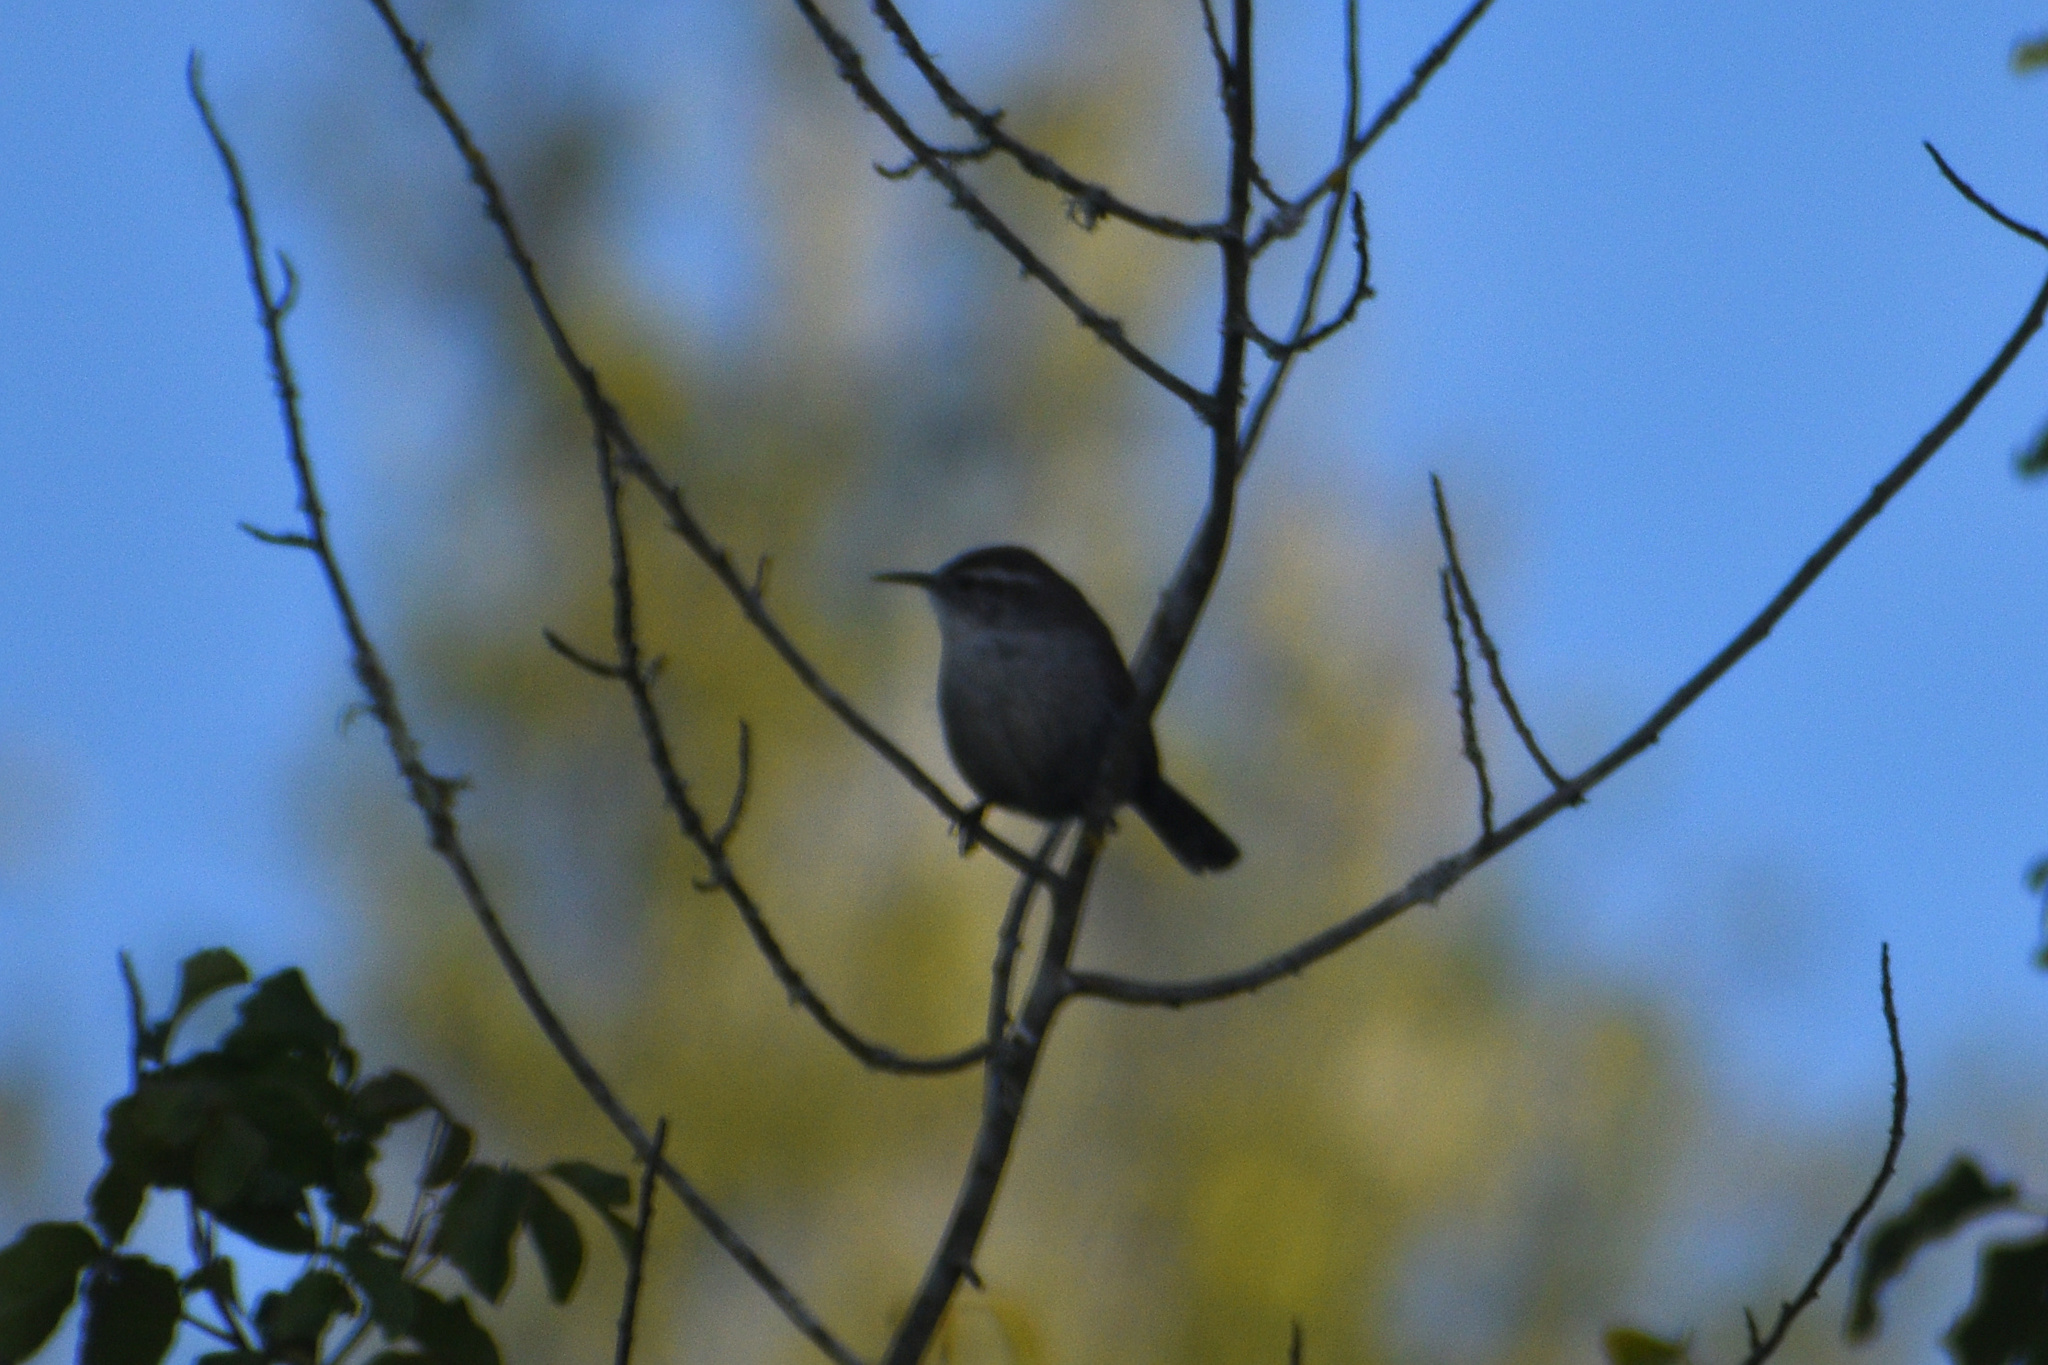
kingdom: Animalia
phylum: Chordata
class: Aves
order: Passeriformes
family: Troglodytidae
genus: Thryomanes
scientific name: Thryomanes bewickii
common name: Bewick's wren
